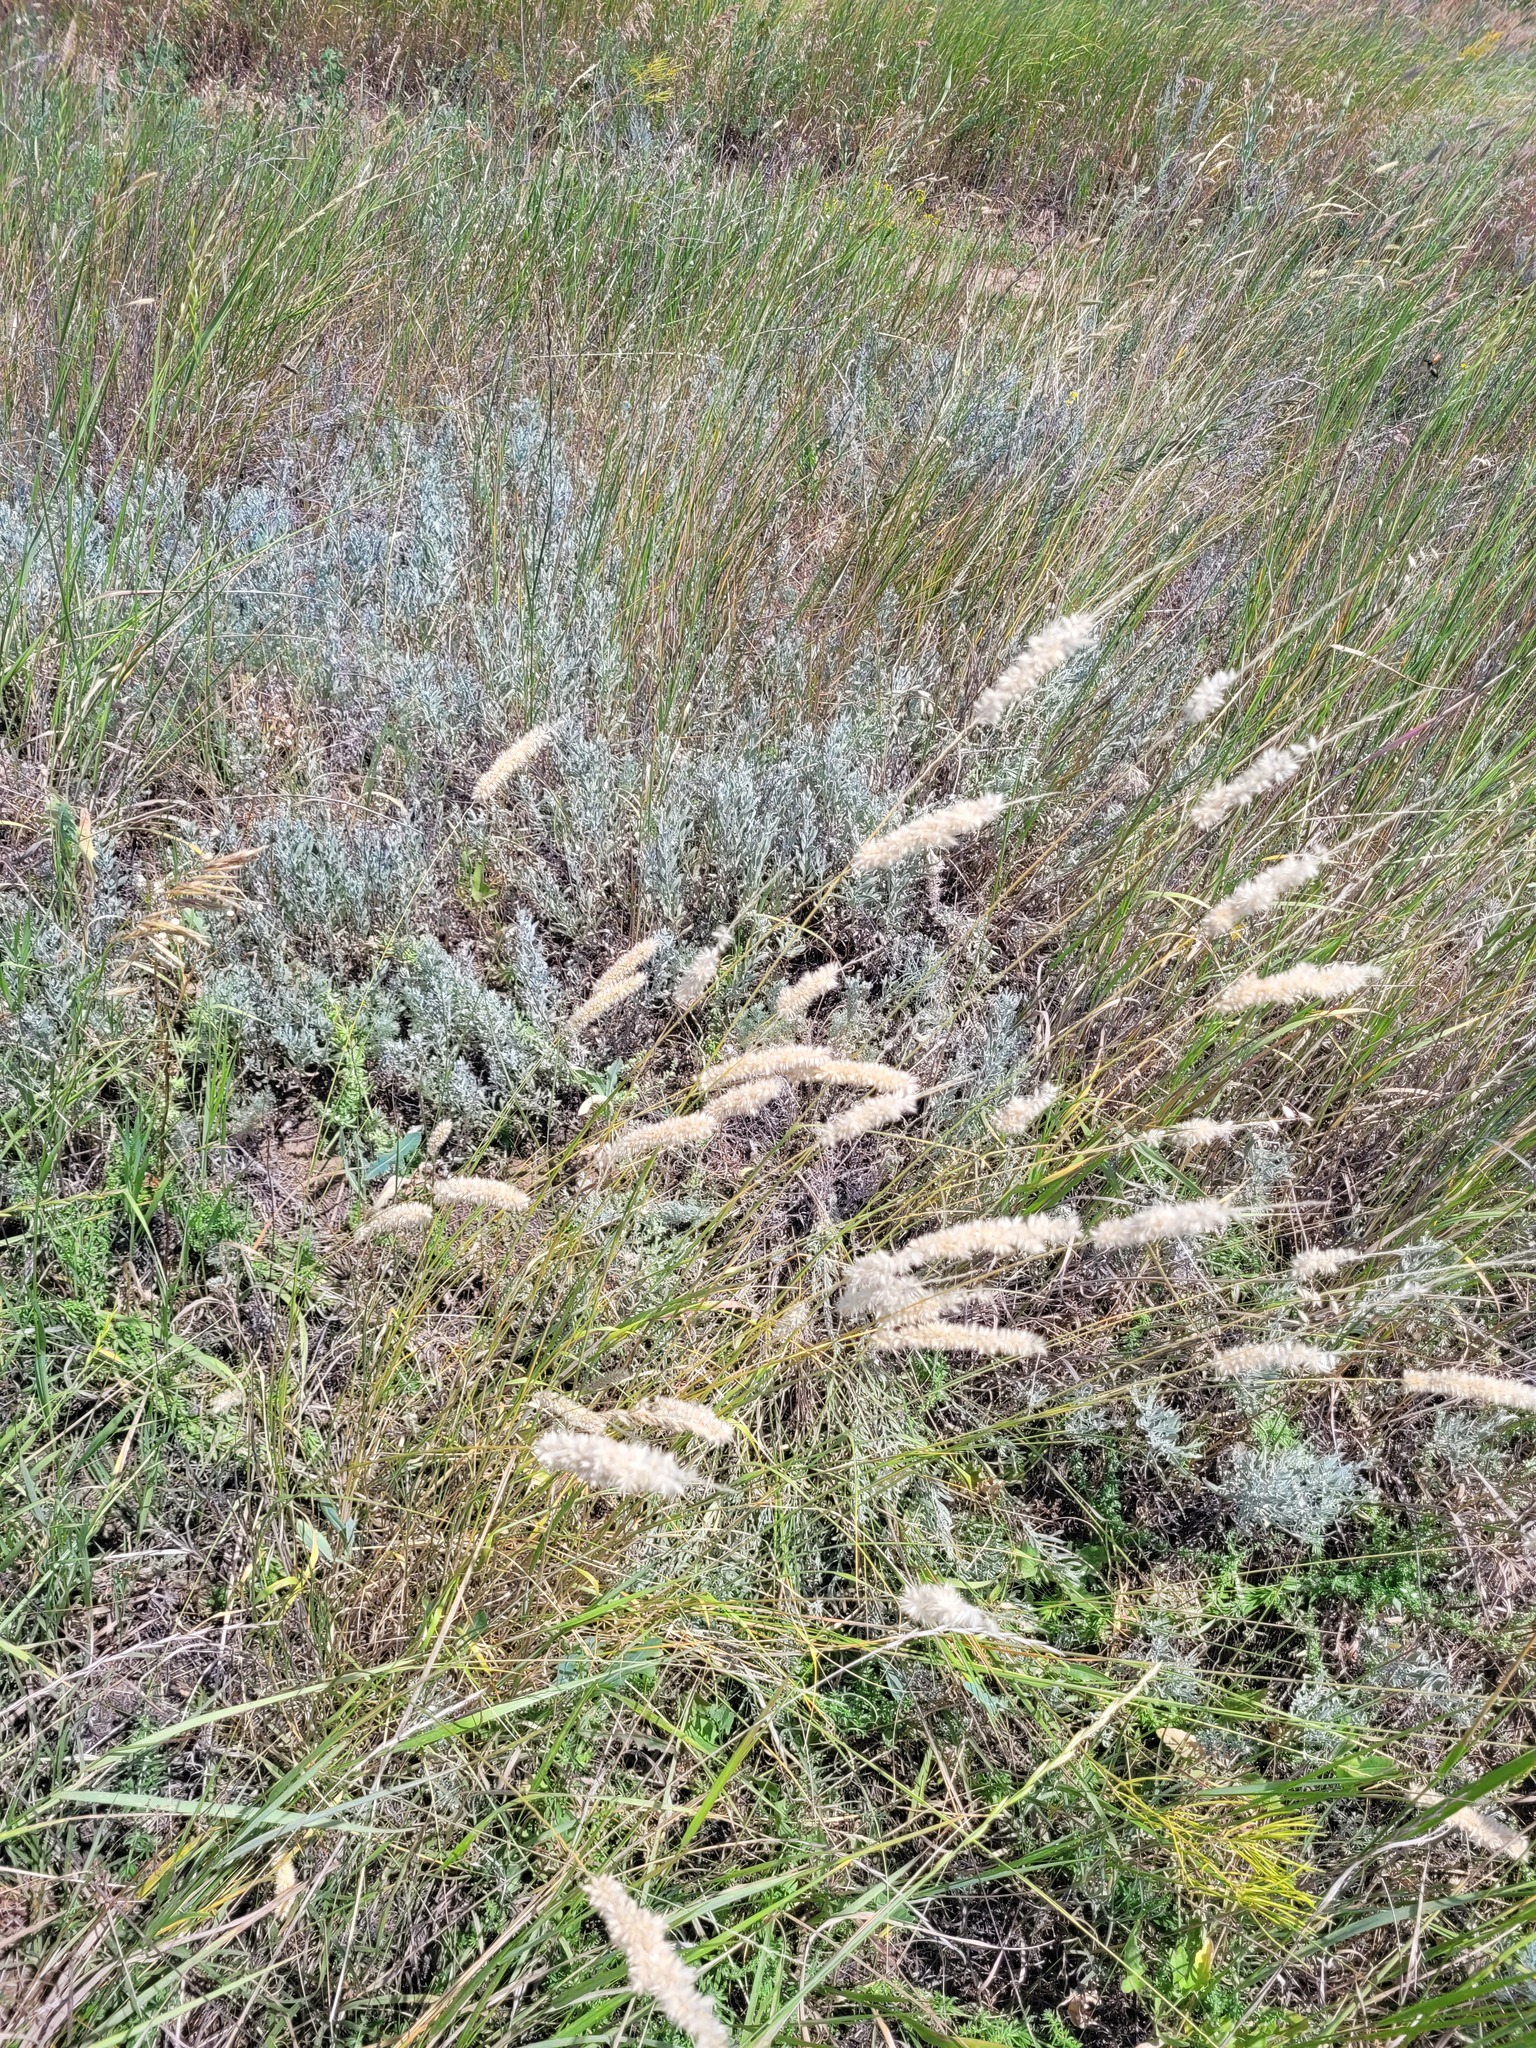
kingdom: Plantae
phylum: Tracheophyta
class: Liliopsida
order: Poales
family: Poaceae
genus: Melica
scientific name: Melica transsilvanica
